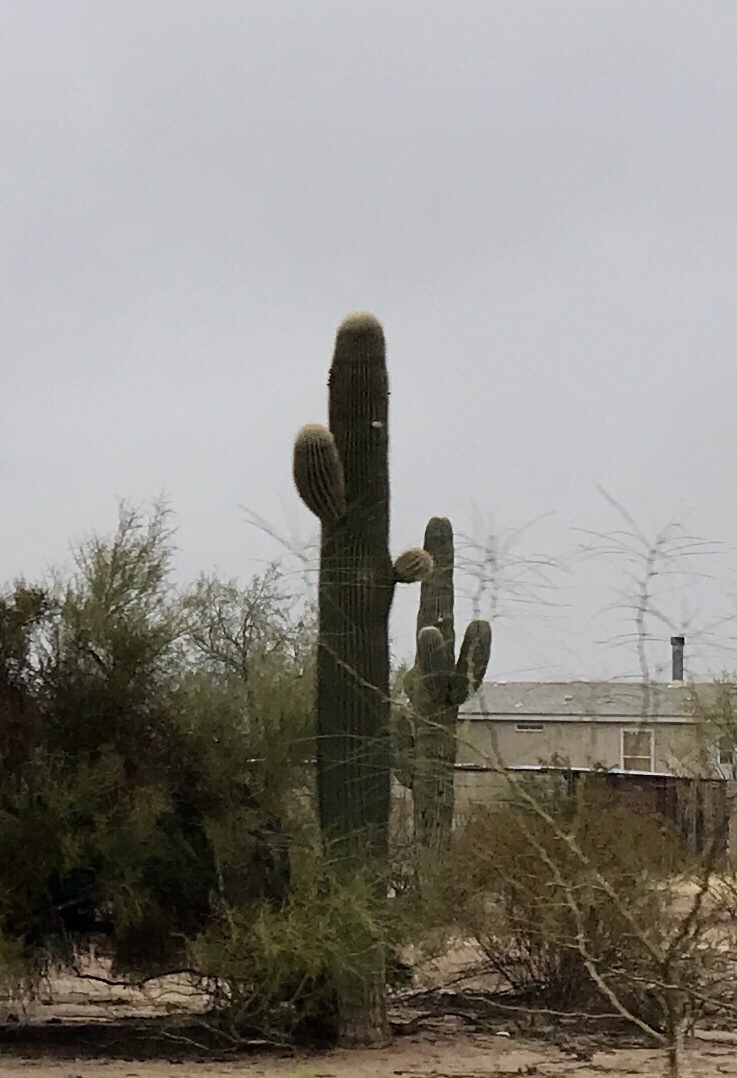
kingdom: Plantae
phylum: Tracheophyta
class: Magnoliopsida
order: Caryophyllales
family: Cactaceae
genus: Carnegiea
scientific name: Carnegiea gigantea
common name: Saguaro
